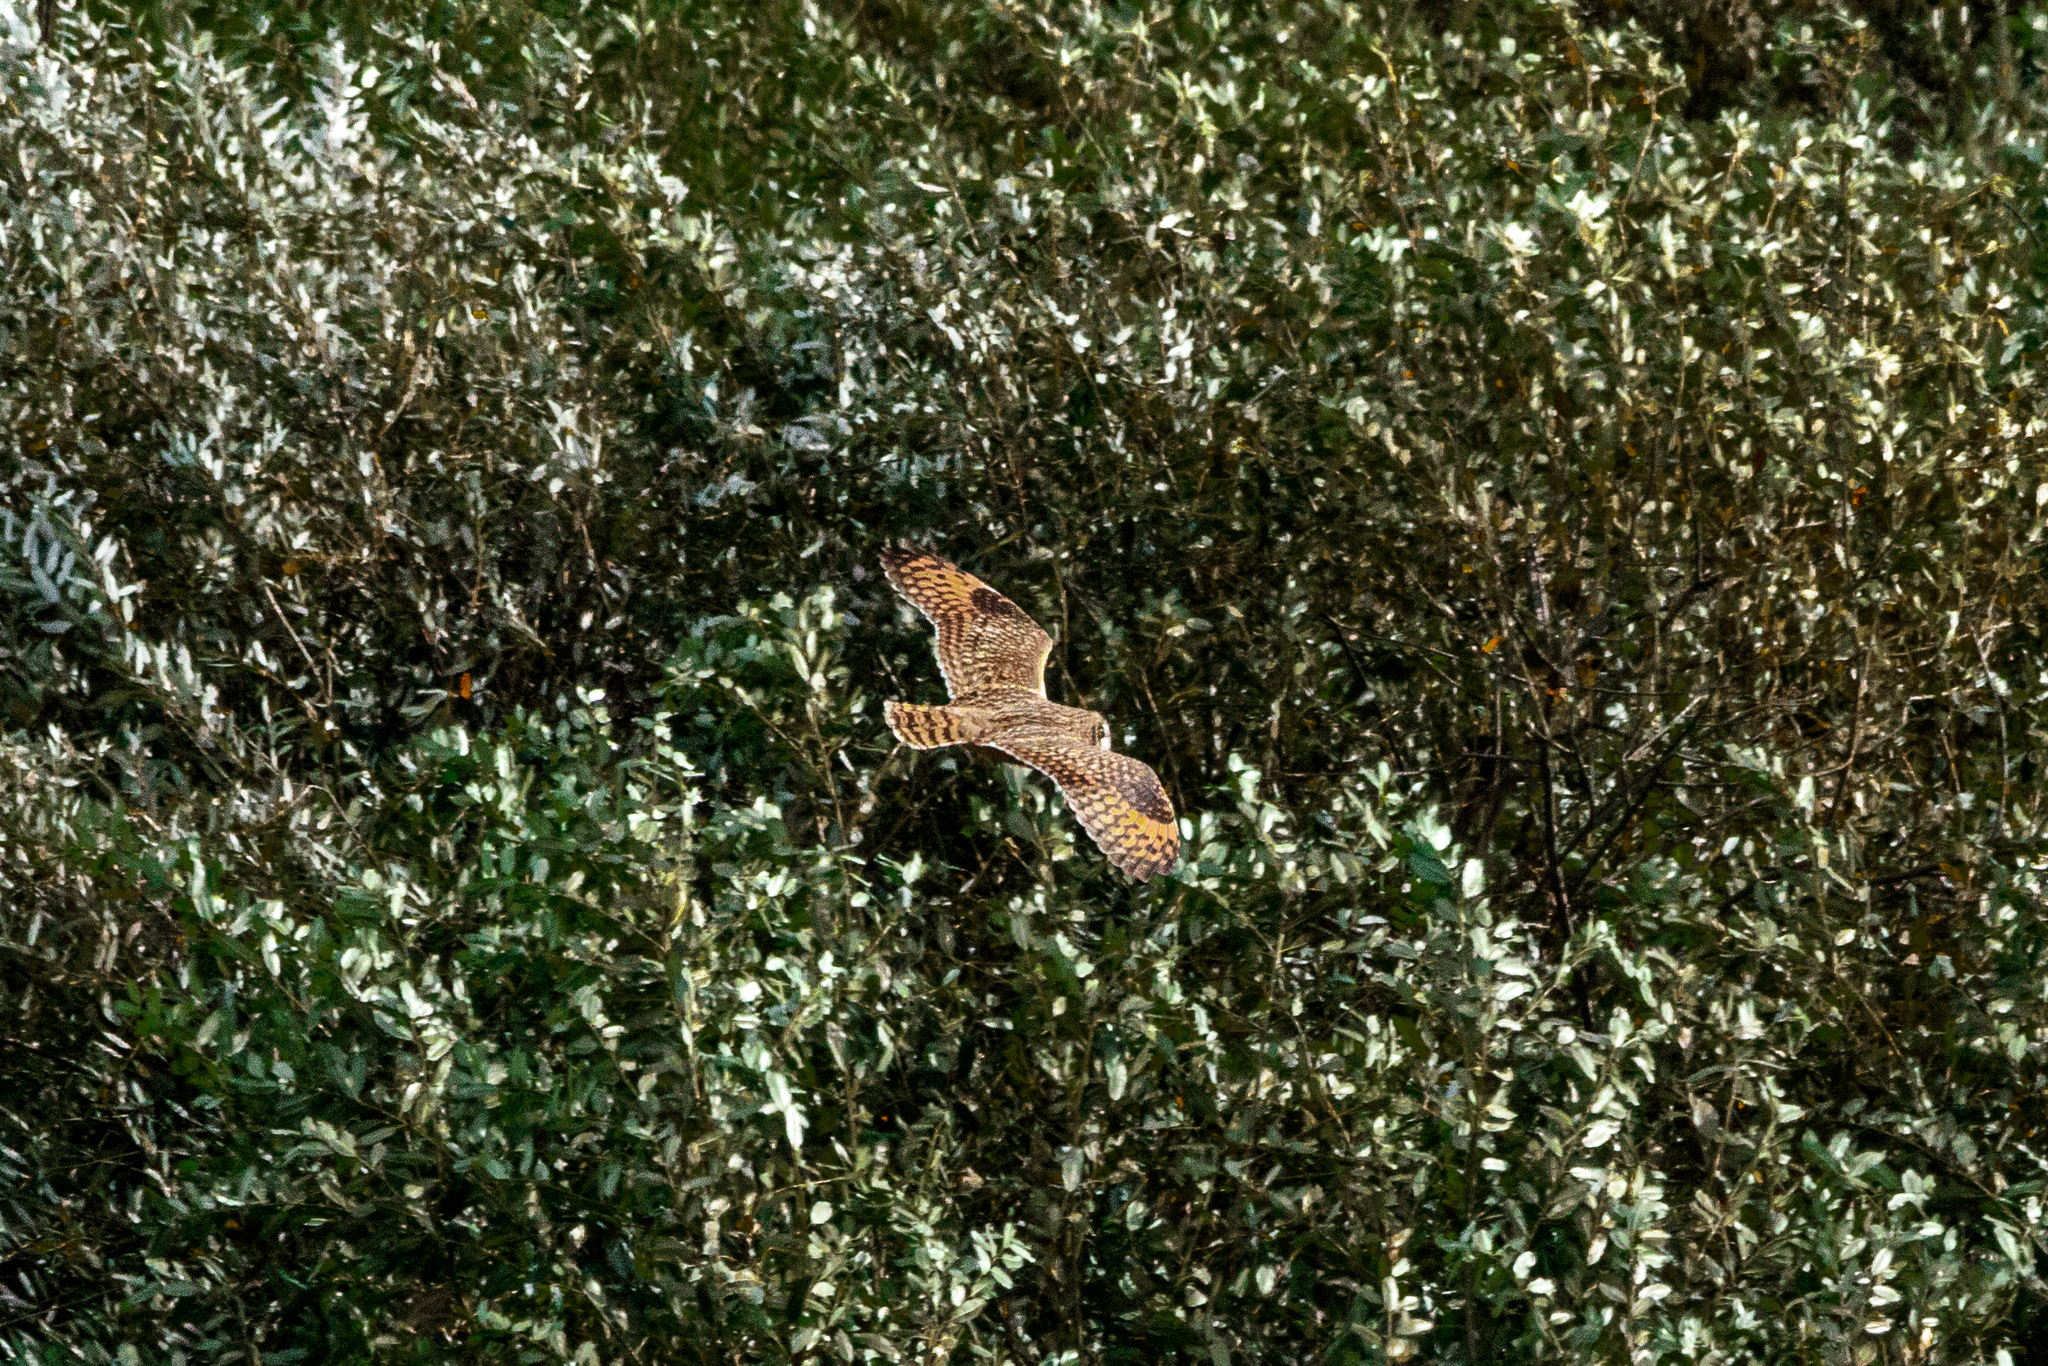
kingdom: Animalia
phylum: Chordata
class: Aves
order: Strigiformes
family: Strigidae
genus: Asio
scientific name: Asio flammeus
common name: Short-eared owl
